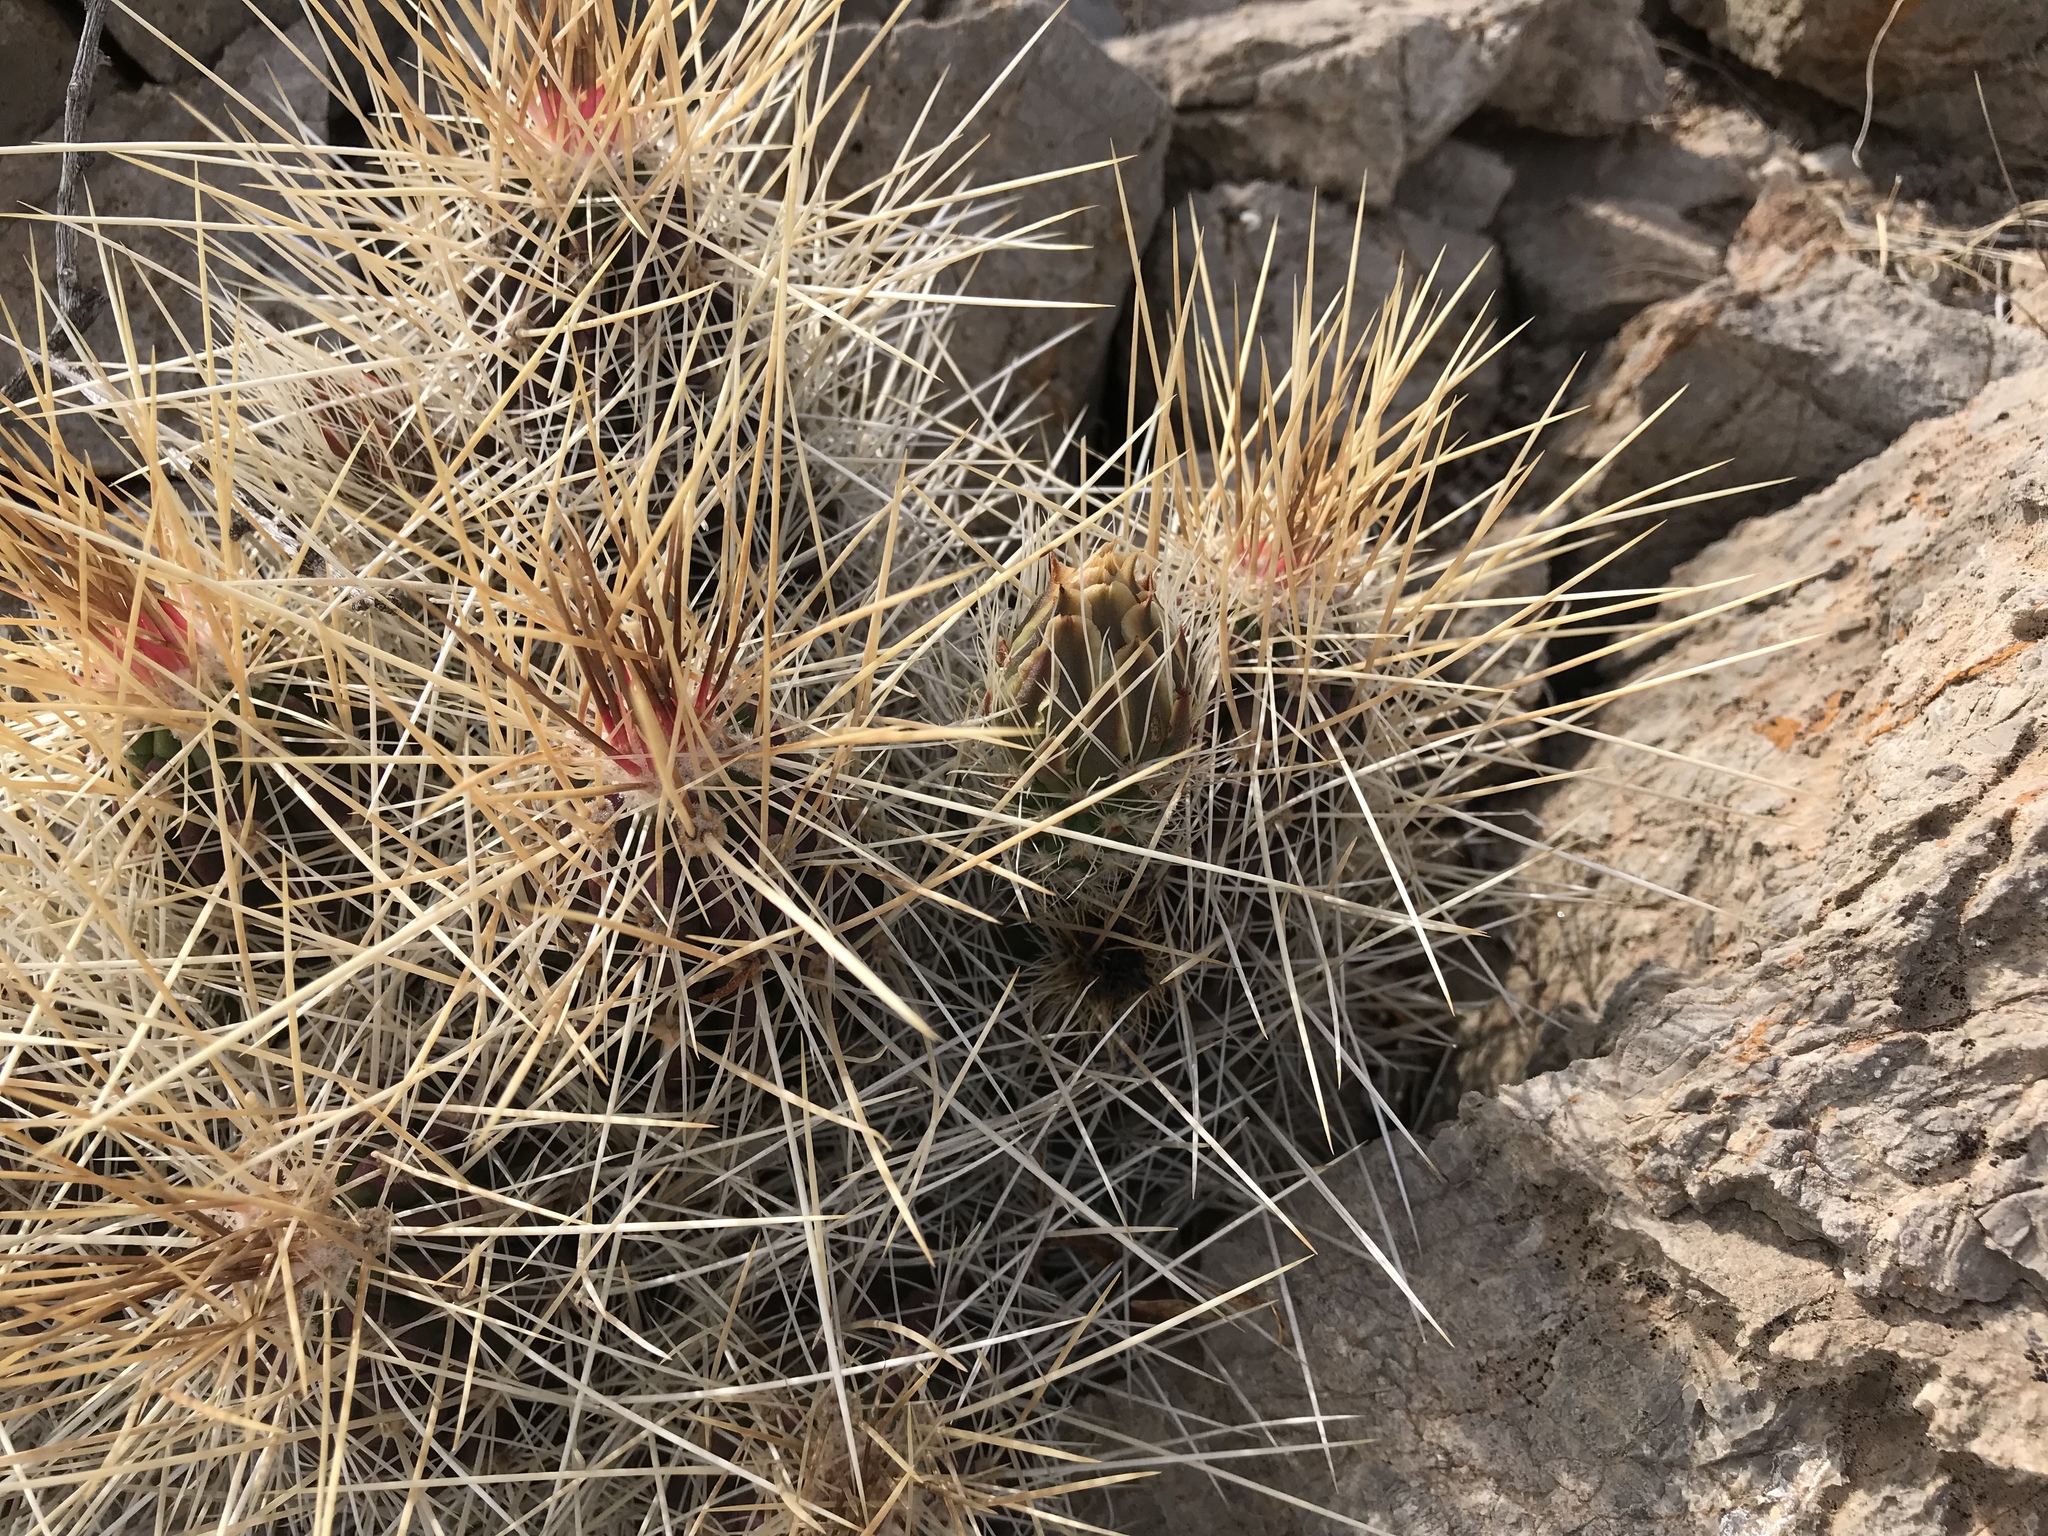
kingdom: Plantae
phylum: Tracheophyta
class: Magnoliopsida
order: Caryophyllales
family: Cactaceae
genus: Echinocereus
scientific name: Echinocereus stramineus
